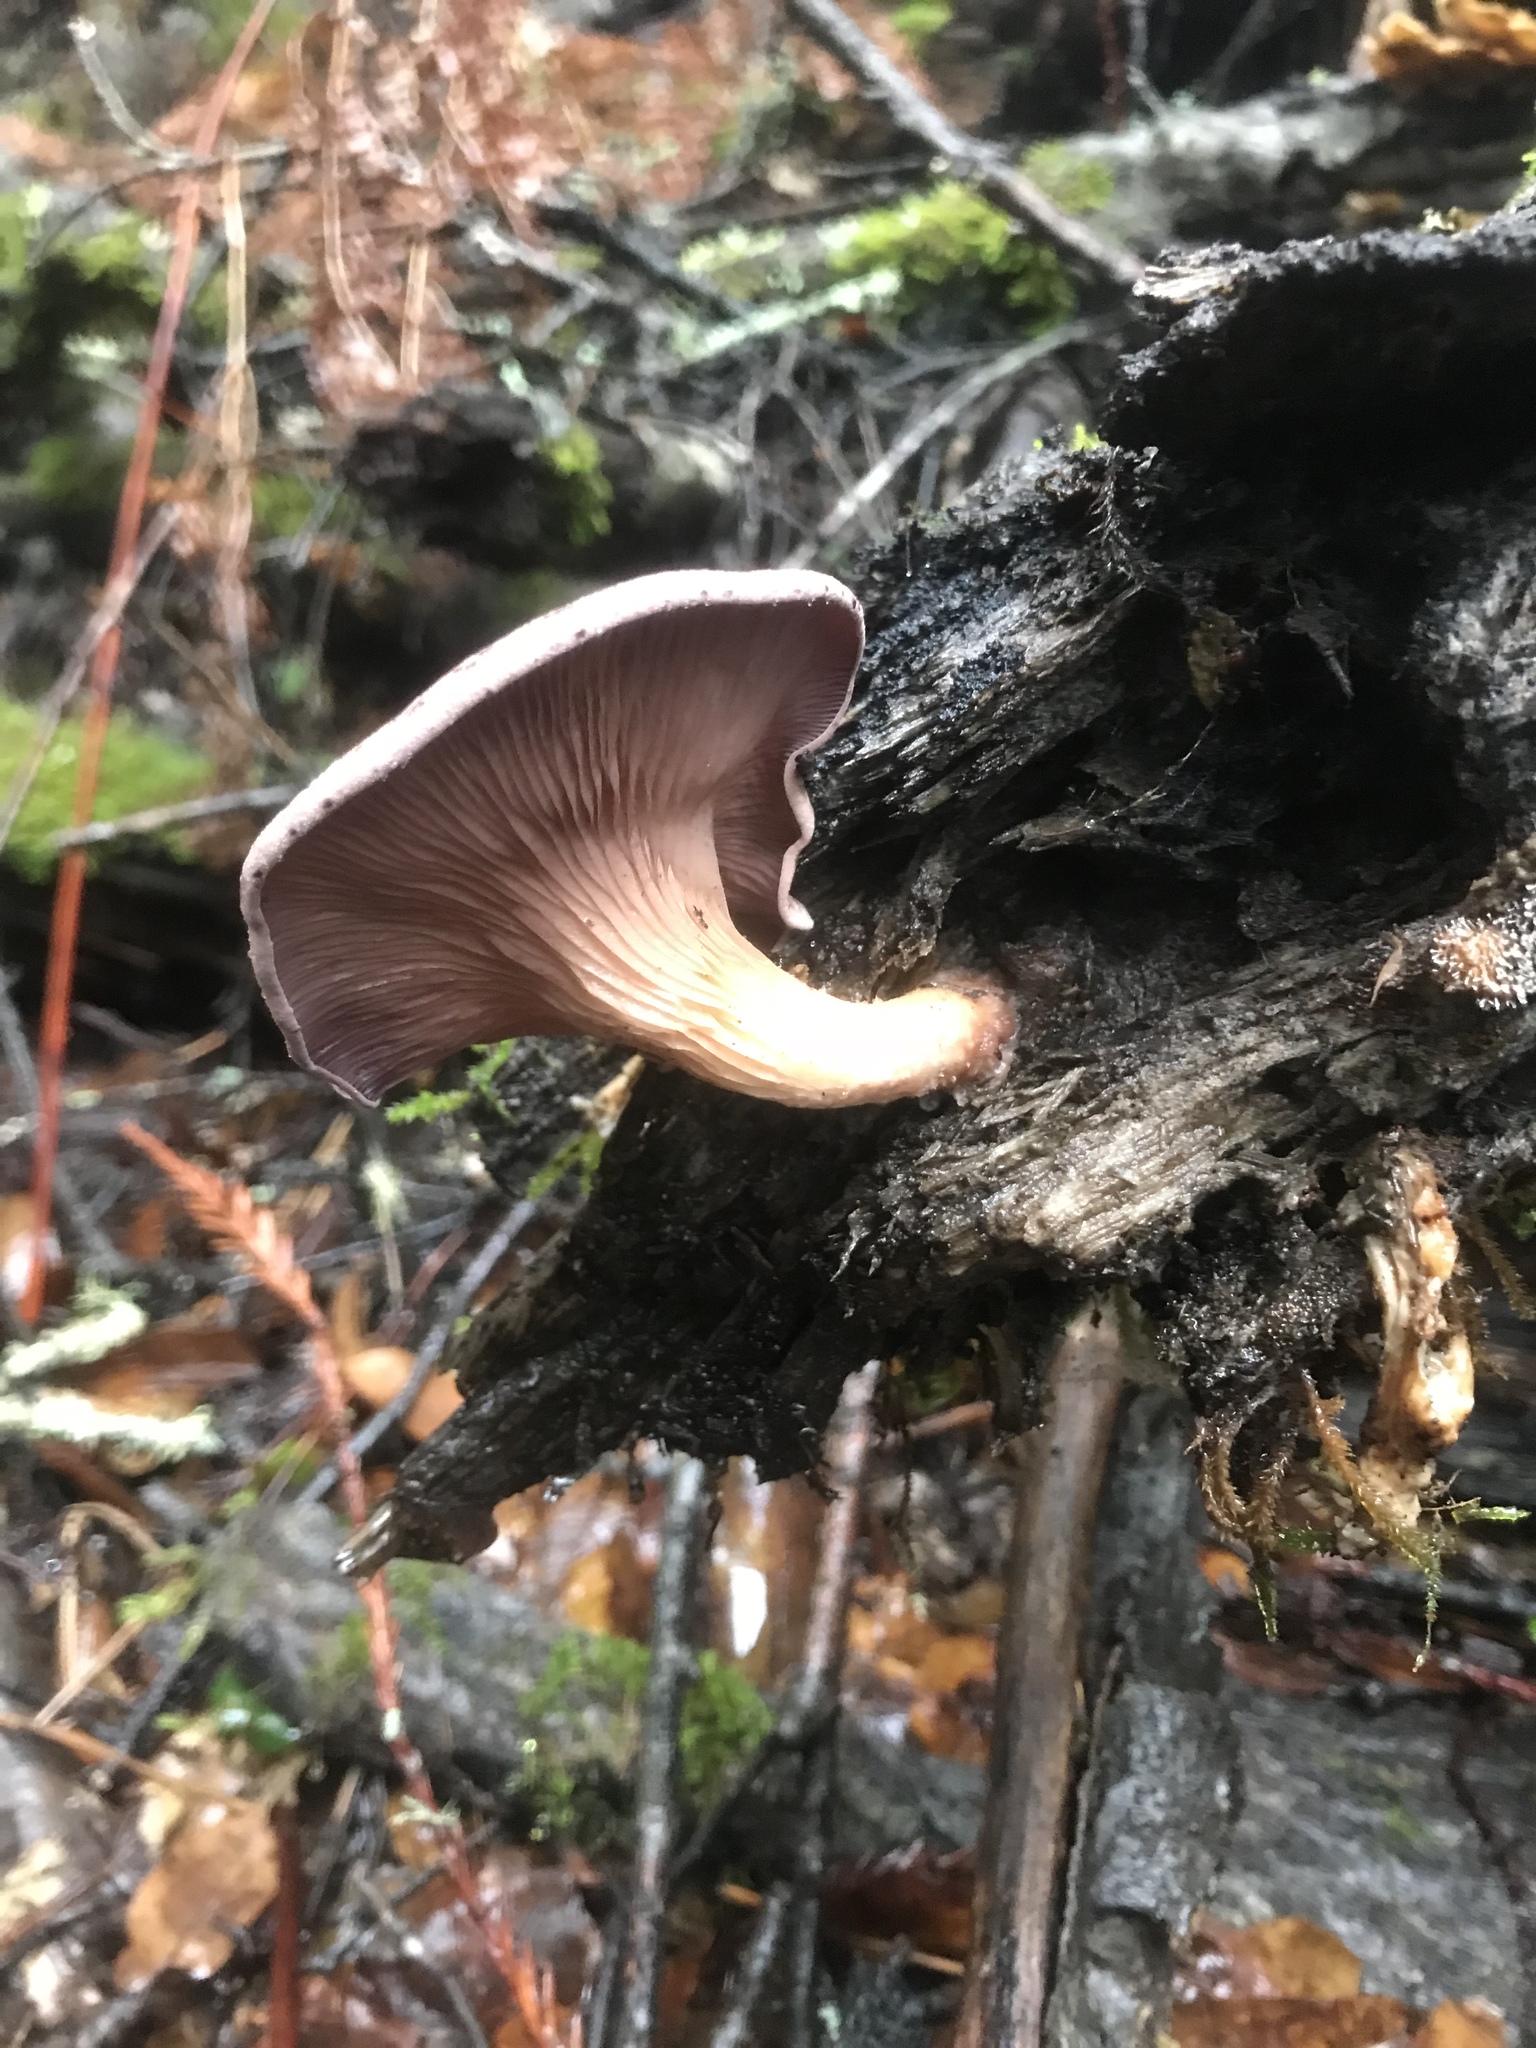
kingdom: Fungi
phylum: Basidiomycota
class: Agaricomycetes
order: Polyporales
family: Panaceae
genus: Panus
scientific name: Panus conchatus
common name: Lilac oysterling
